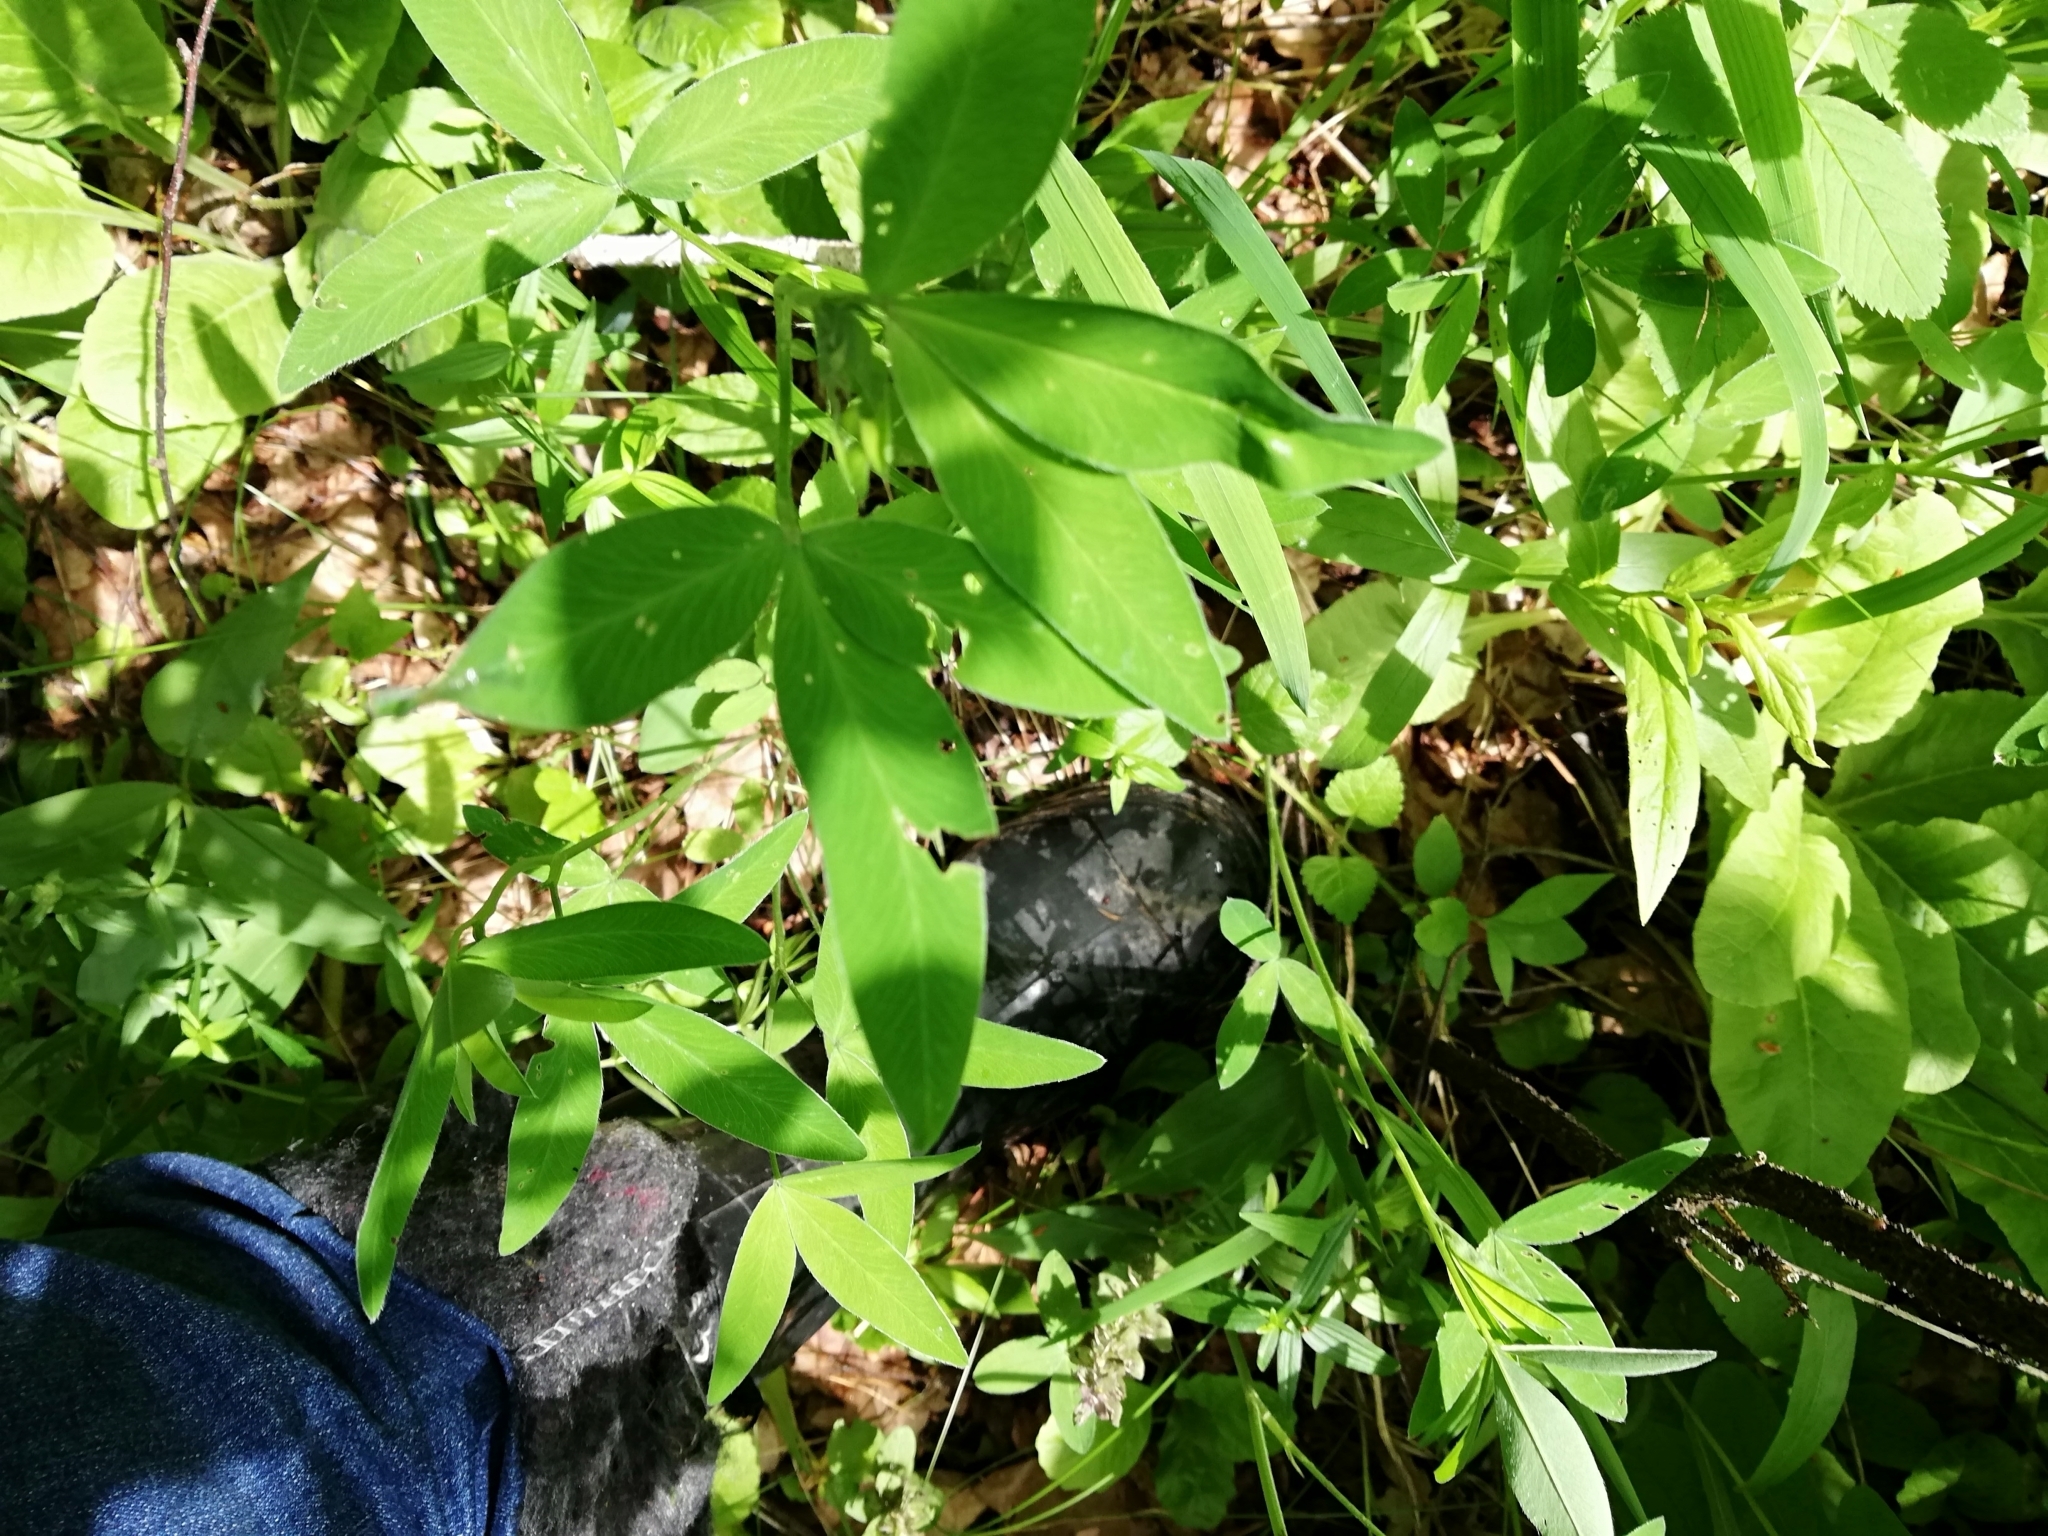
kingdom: Plantae
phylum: Tracheophyta
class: Magnoliopsida
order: Fabales
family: Fabaceae
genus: Trifolium
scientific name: Trifolium medium
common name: Zigzag clover
